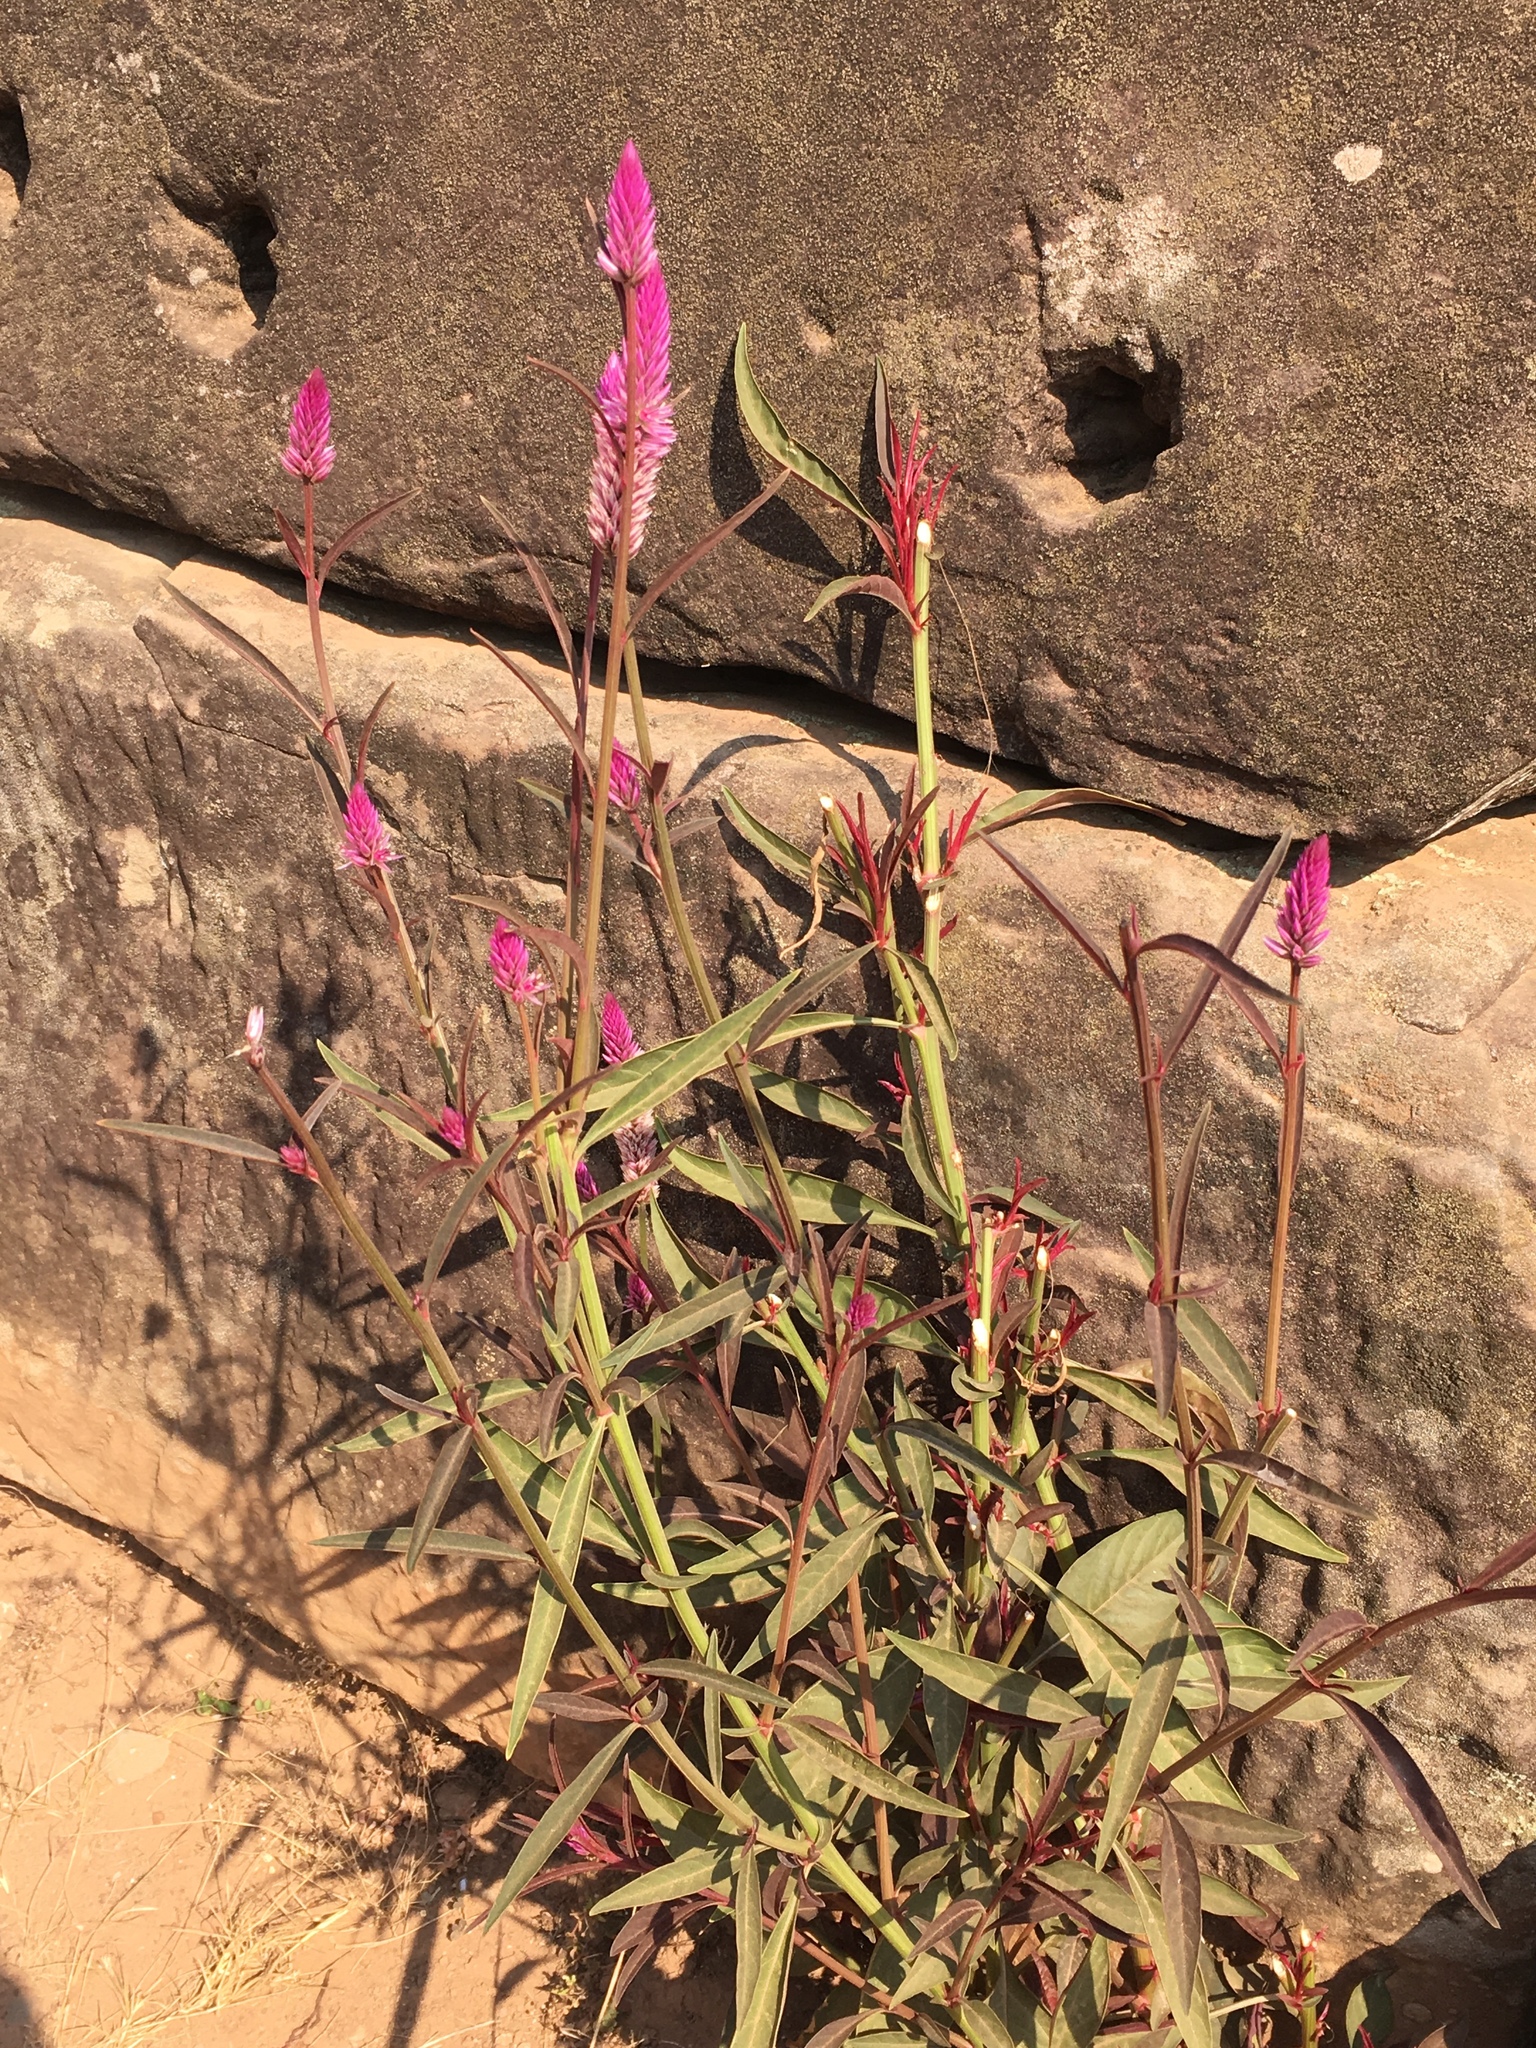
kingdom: Plantae
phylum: Tracheophyta
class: Magnoliopsida
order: Caryophyllales
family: Amaranthaceae
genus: Celosia
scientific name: Celosia argentea
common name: Feather cockscomb
